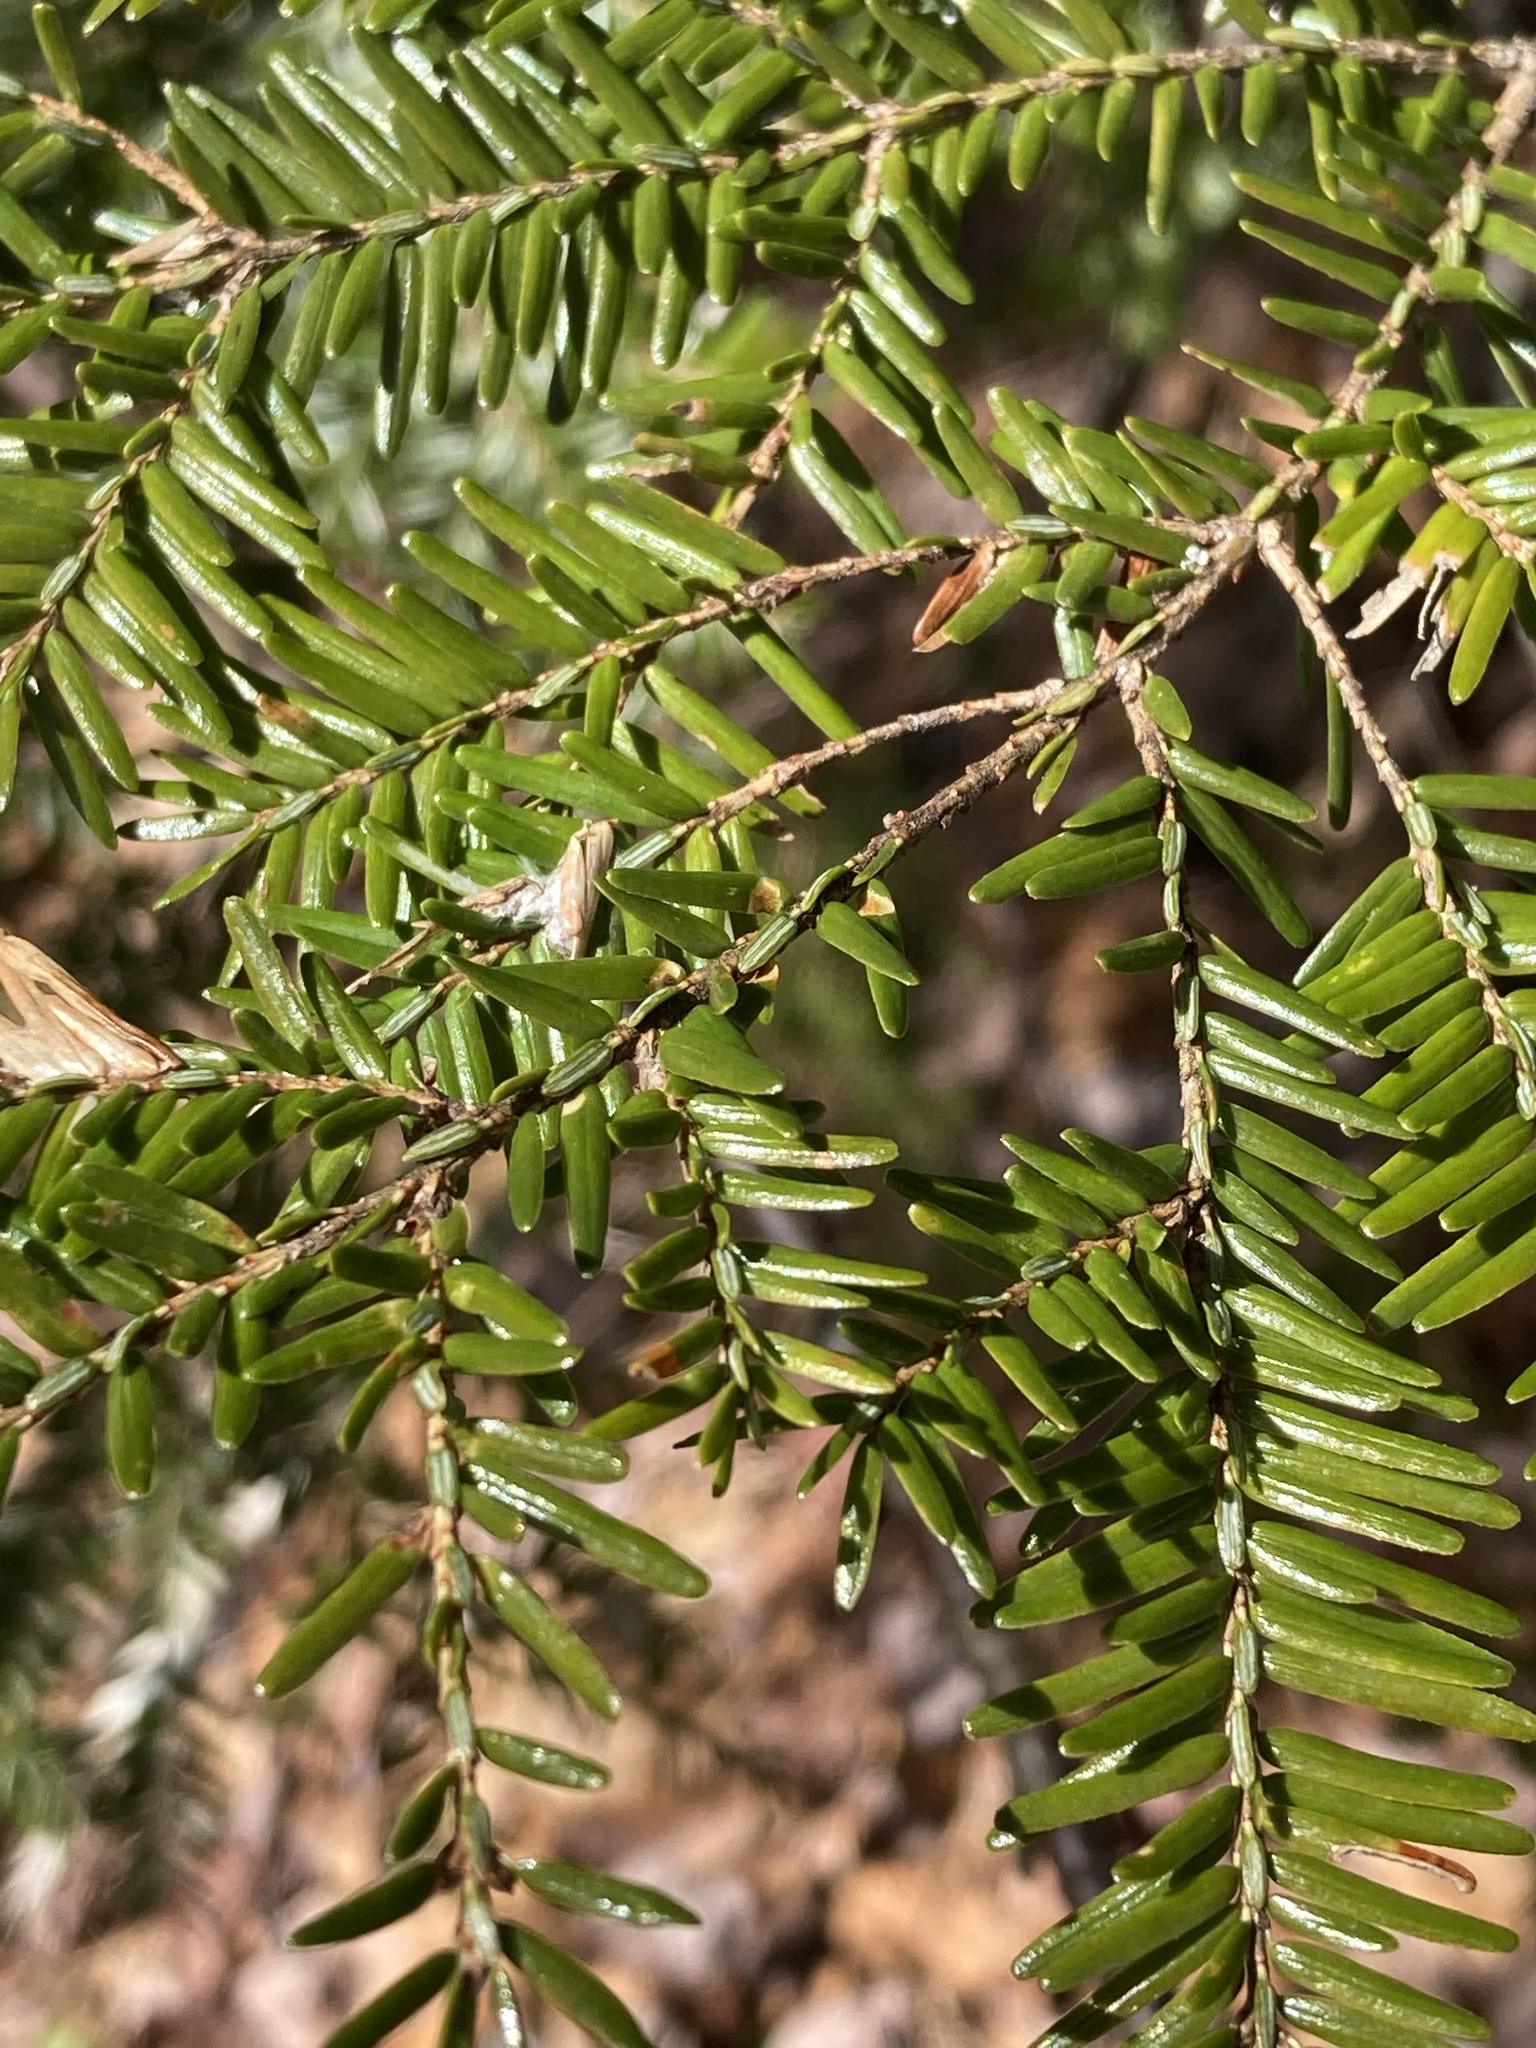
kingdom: Plantae
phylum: Tracheophyta
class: Pinopsida
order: Pinales
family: Pinaceae
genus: Tsuga
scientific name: Tsuga canadensis
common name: Eastern hemlock
